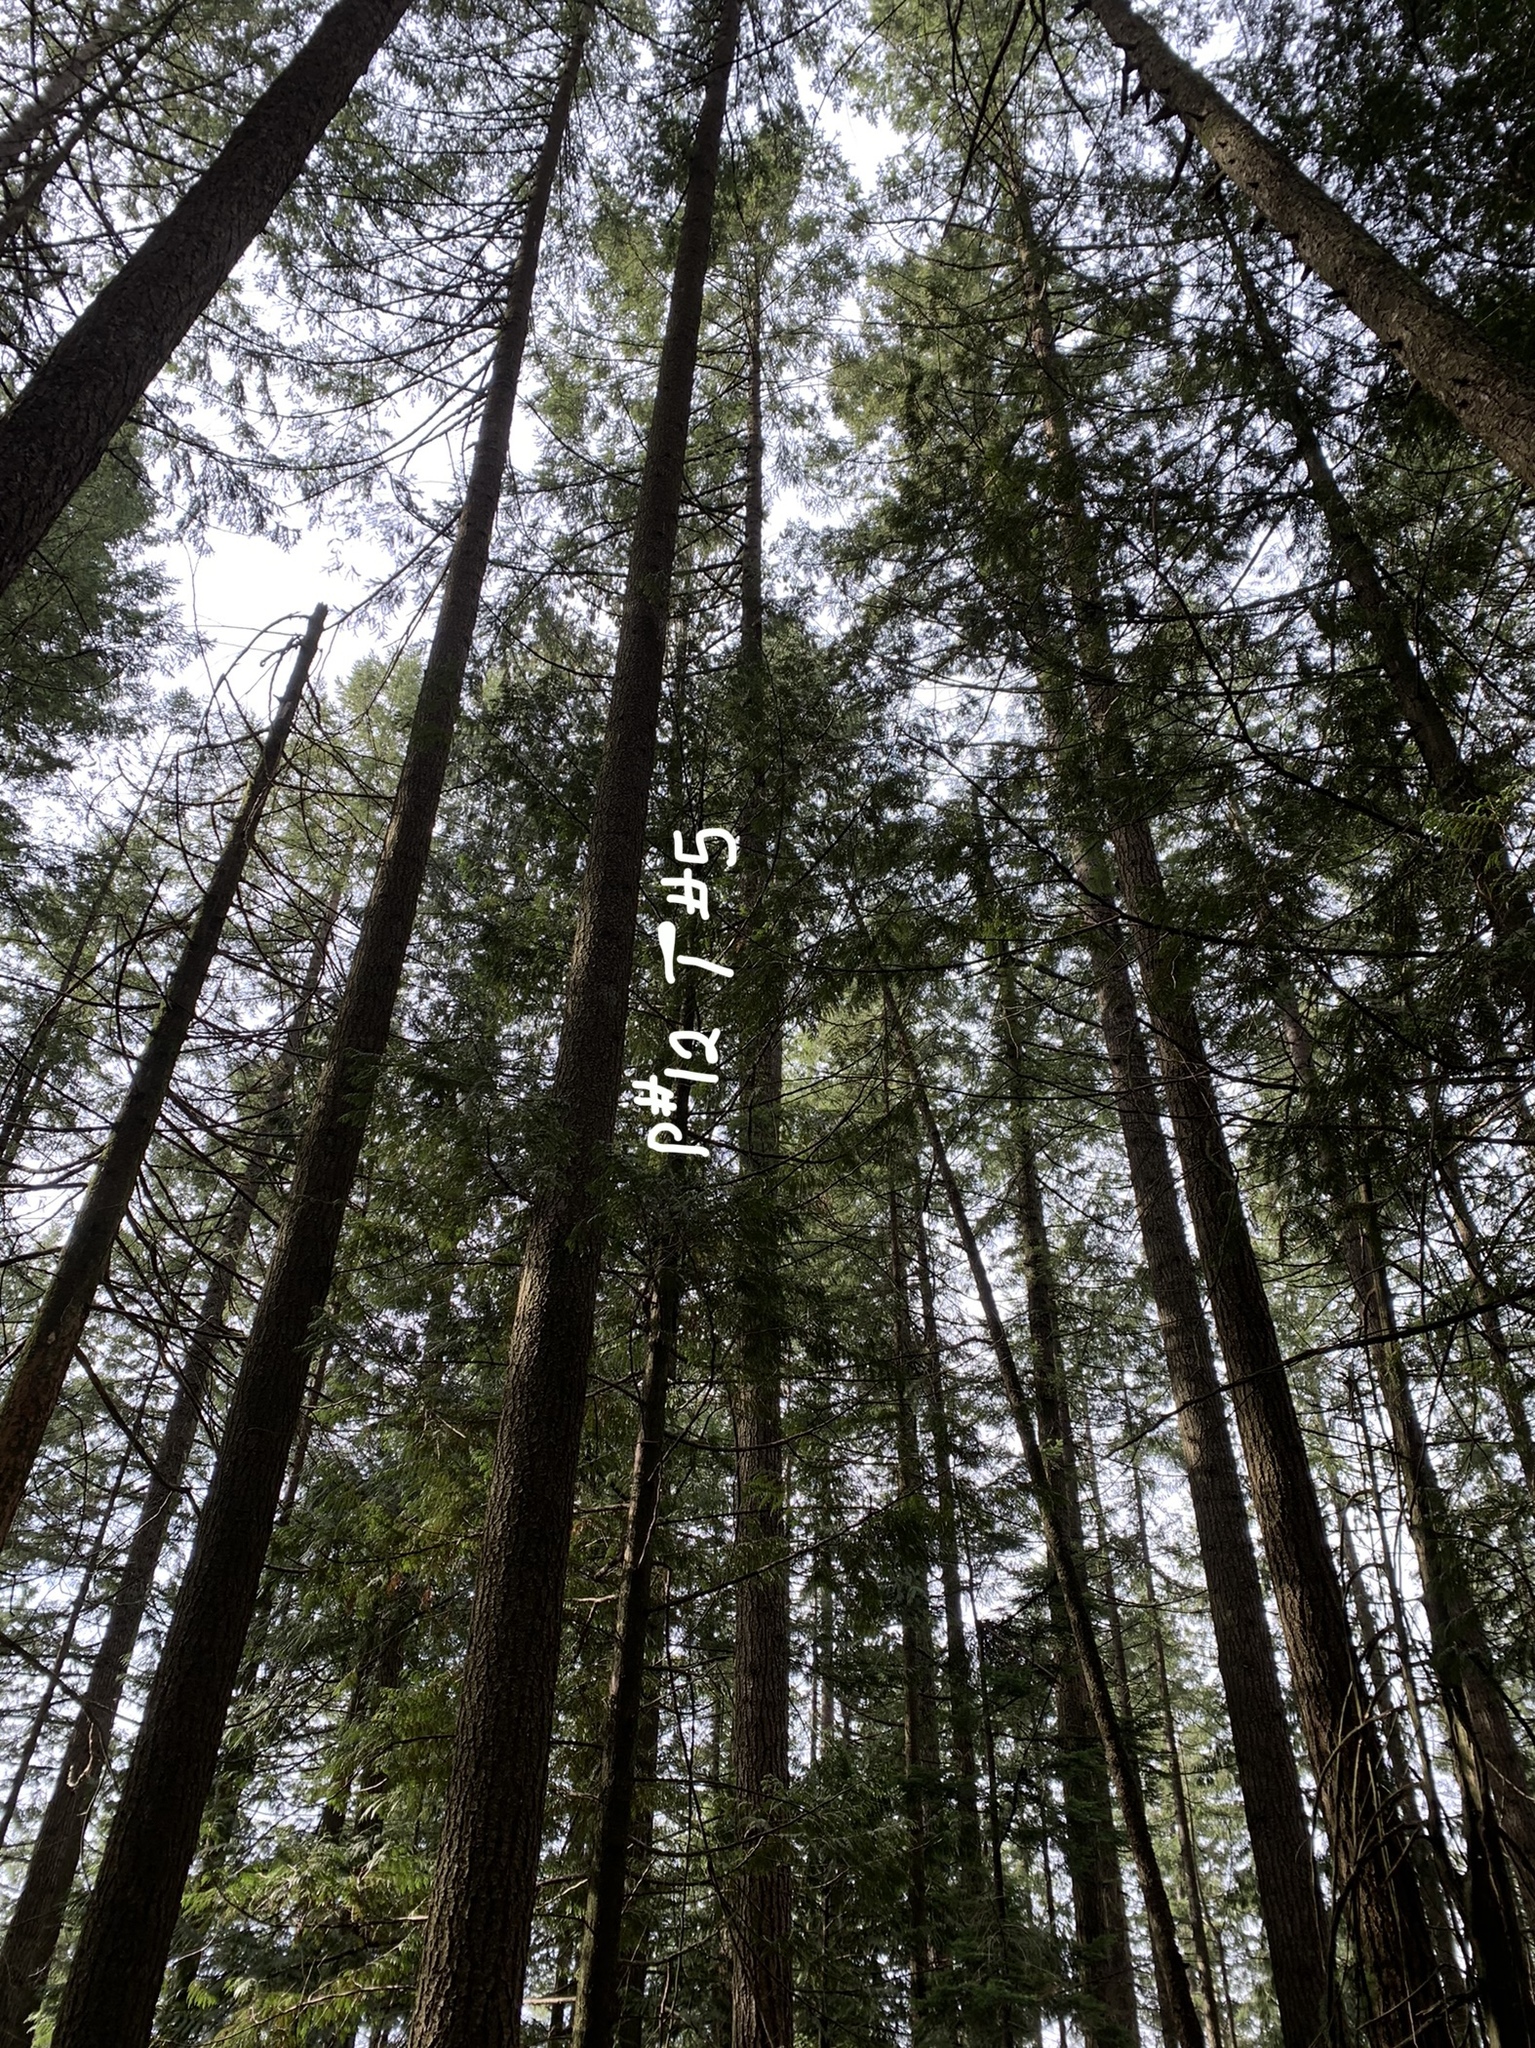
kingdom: Plantae
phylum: Tracheophyta
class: Pinopsida
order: Pinales
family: Cupressaceae
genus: Thuja
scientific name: Thuja plicata
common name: Western red-cedar
